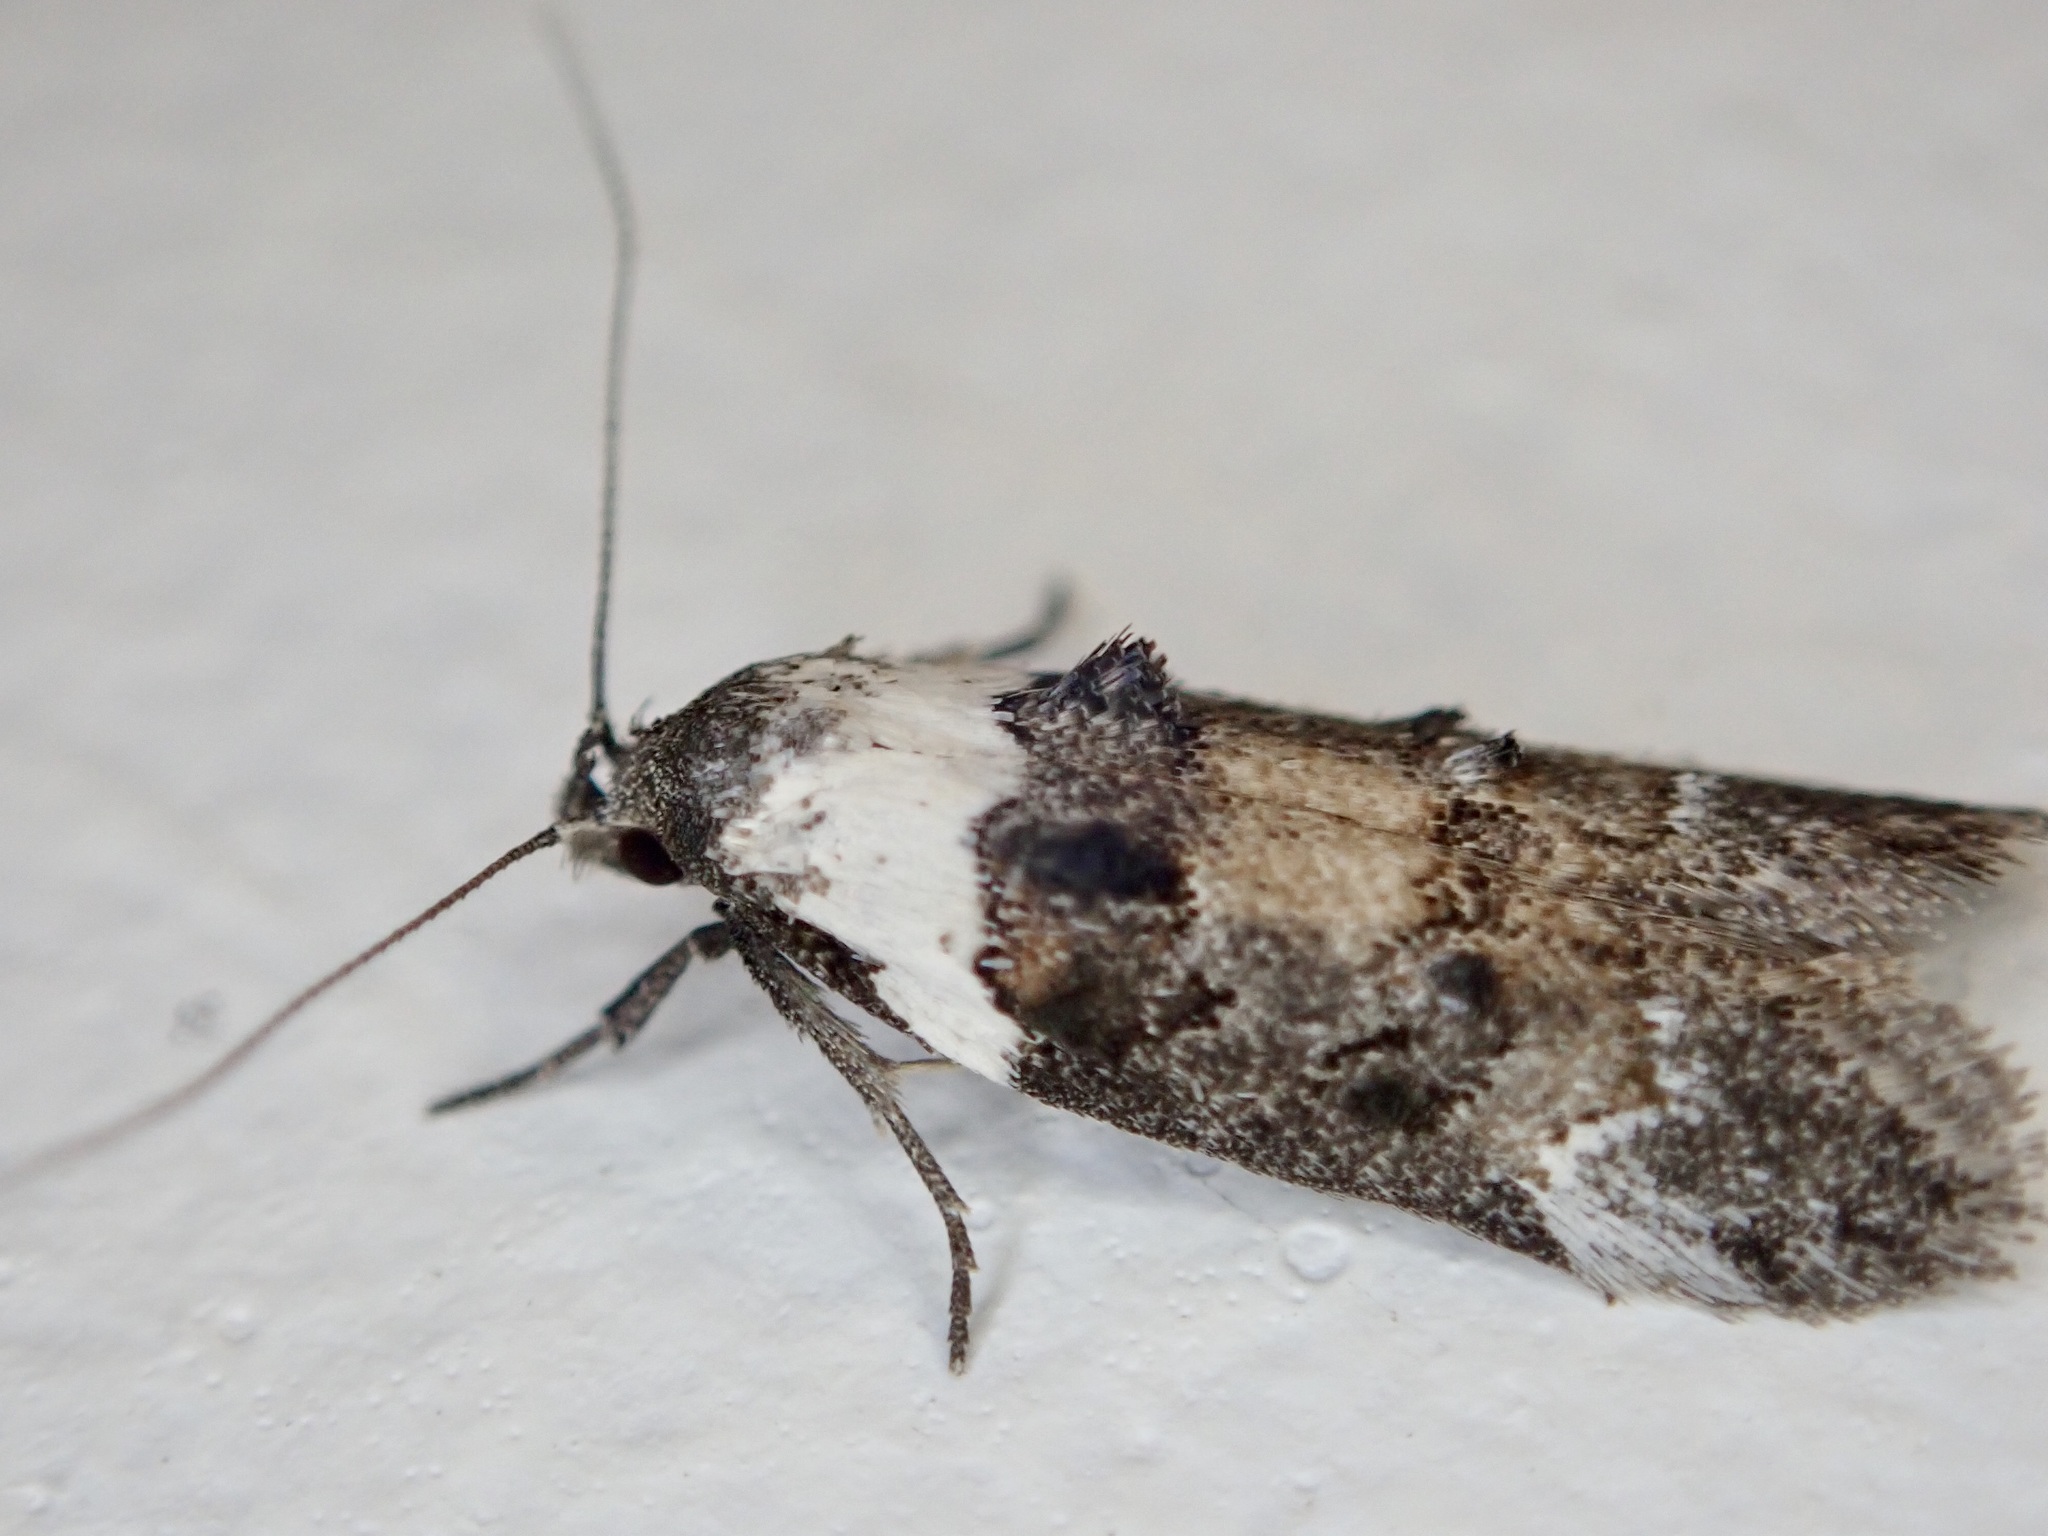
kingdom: Animalia
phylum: Arthropoda
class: Insecta
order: Lepidoptera
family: Oecophoridae
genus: Trachypepla
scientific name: Trachypepla conspicuella
